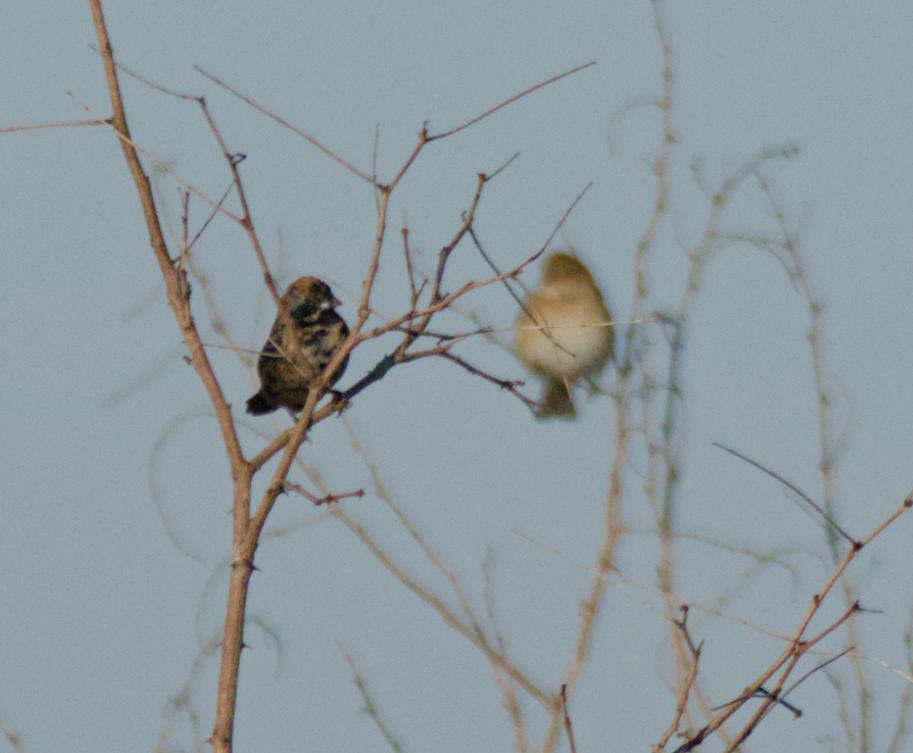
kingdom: Animalia
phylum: Chordata
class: Aves
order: Passeriformes
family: Thraupidae
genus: Volatinia
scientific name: Volatinia jacarina
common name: Blue-black grassquit
